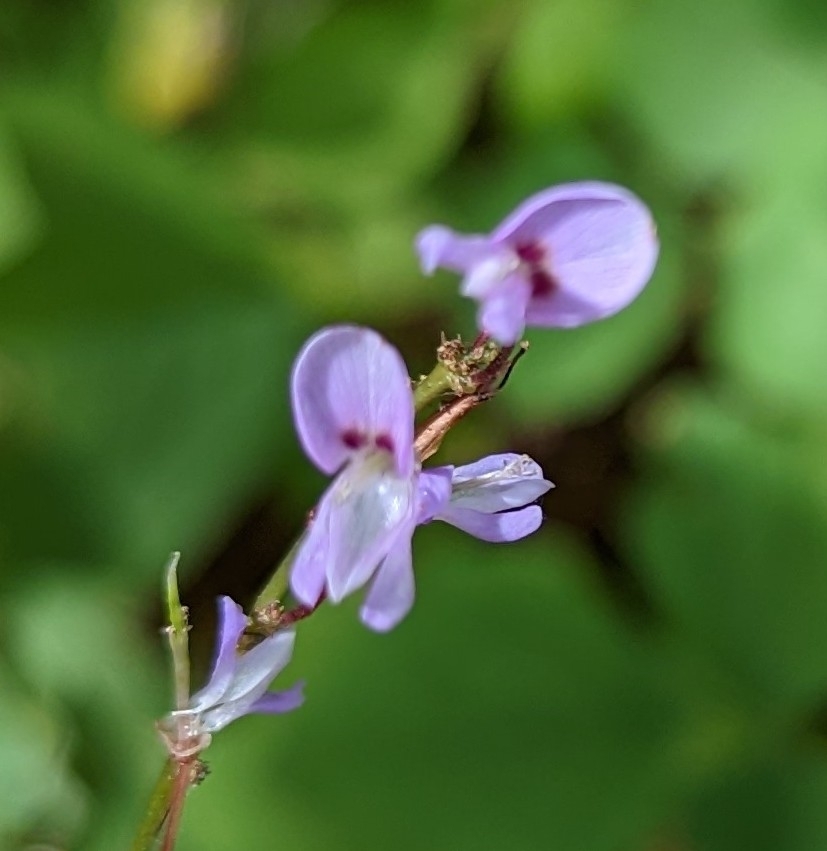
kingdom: Plantae
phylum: Tracheophyta
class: Magnoliopsida
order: Fabales
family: Fabaceae
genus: Hylodesmum
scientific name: Hylodesmum nudiflorum
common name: Bare-stemmed tick-trefoil
